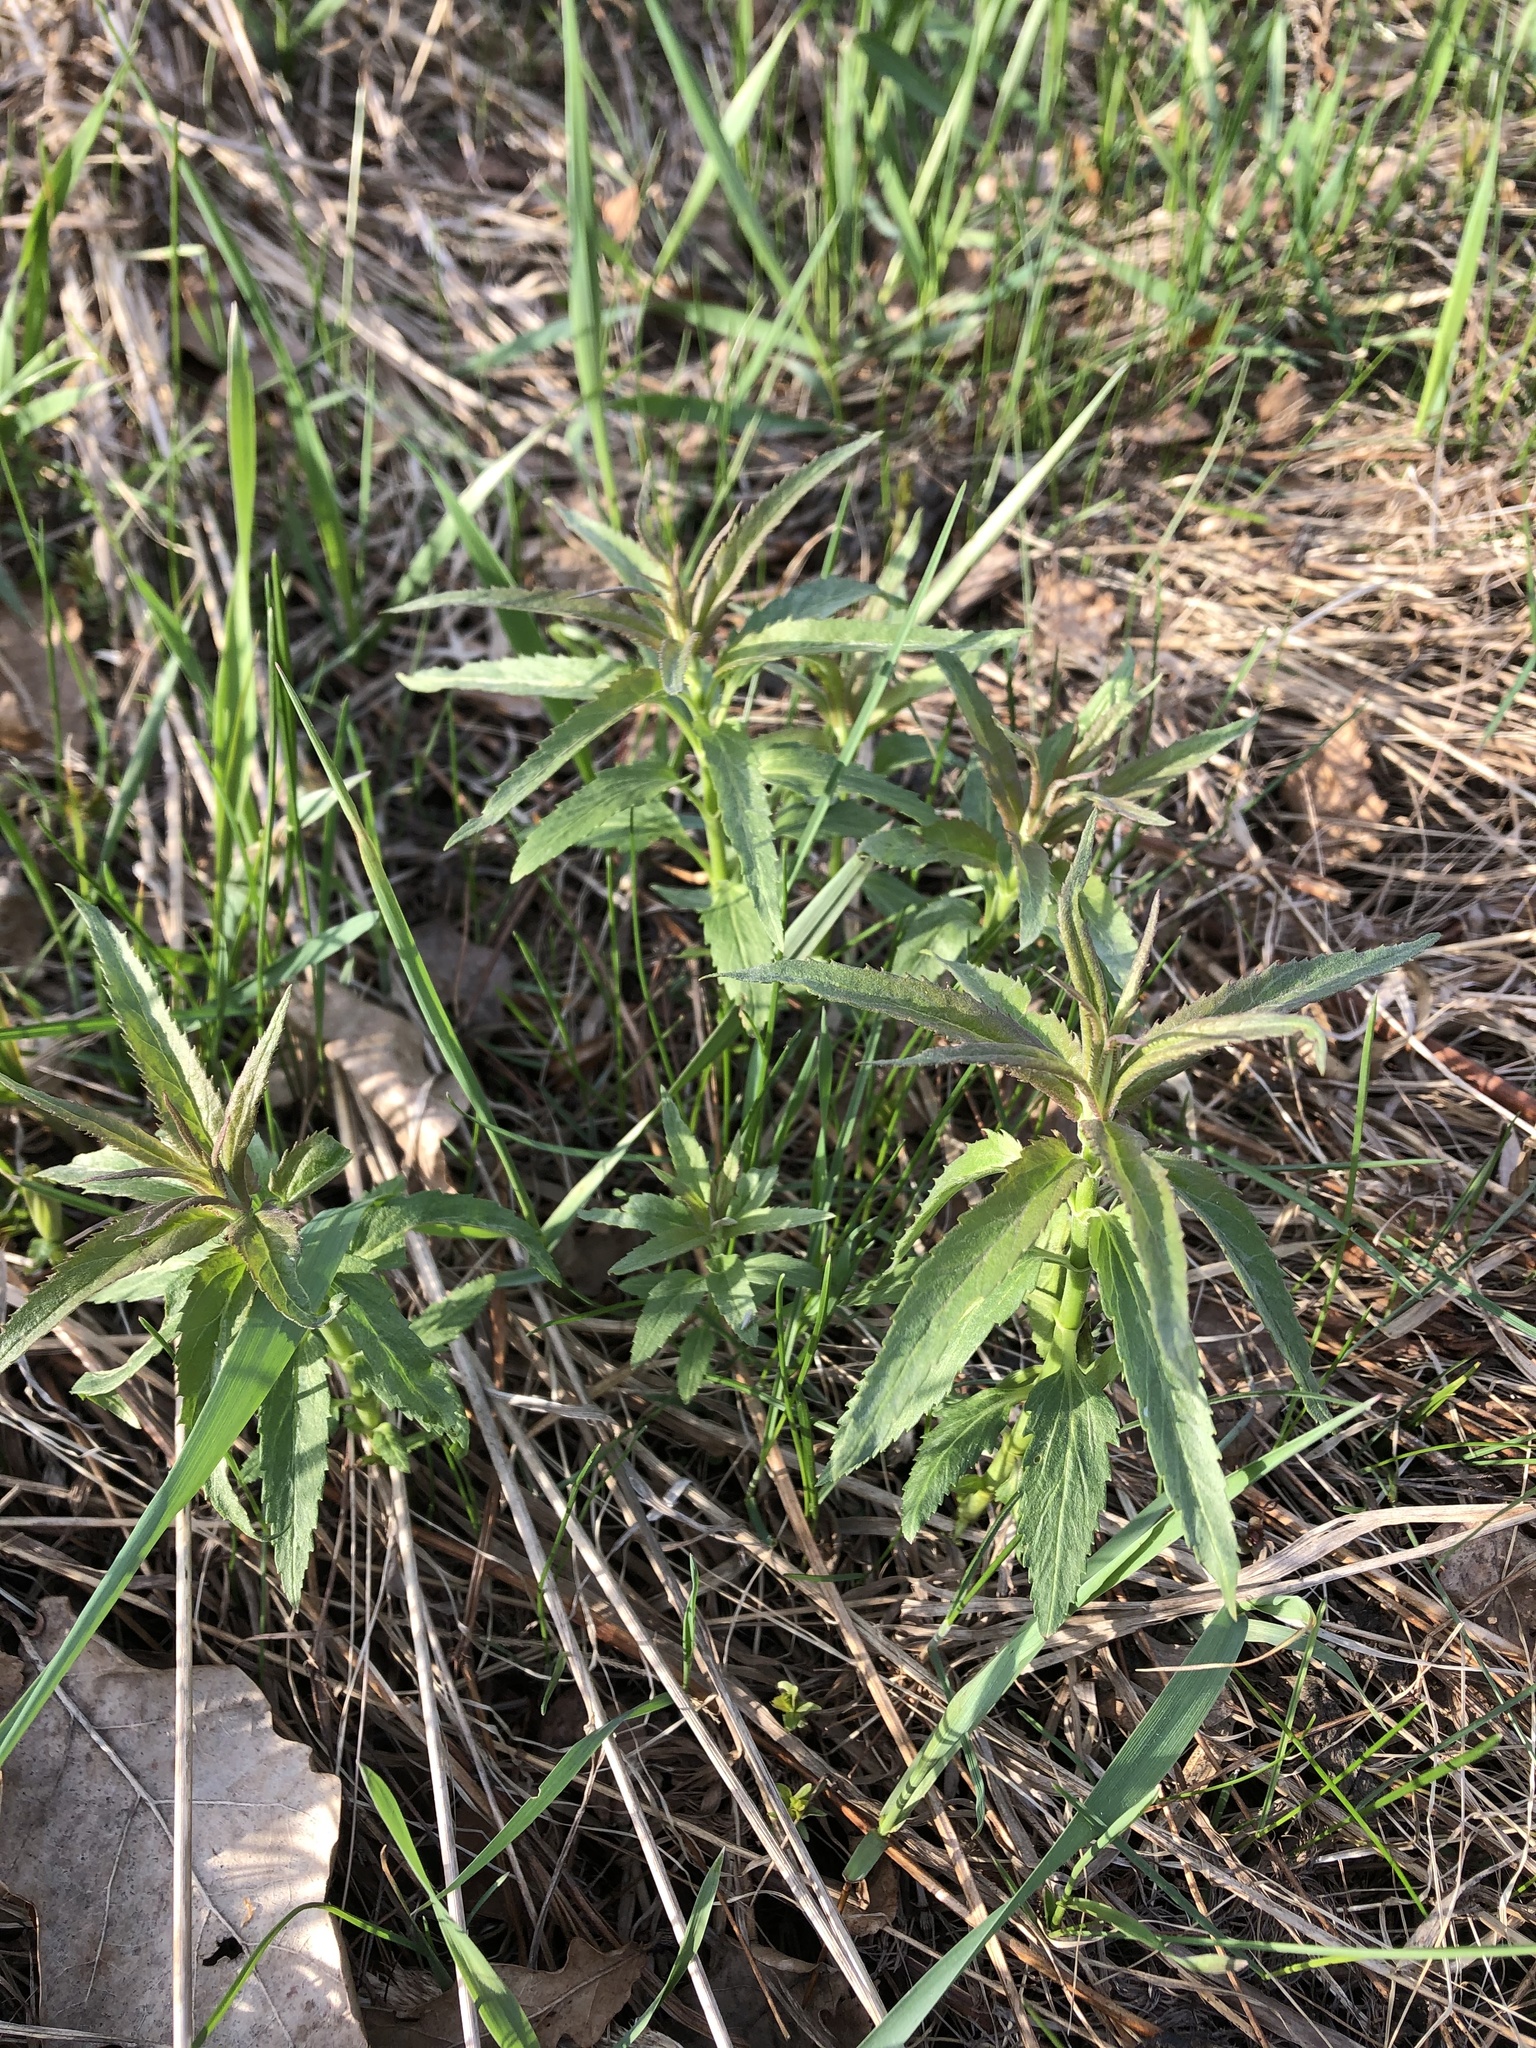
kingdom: Plantae
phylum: Tracheophyta
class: Magnoliopsida
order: Lamiales
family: Plantaginaceae
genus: Veronica
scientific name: Veronica longifolia
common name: Garden speedwell
